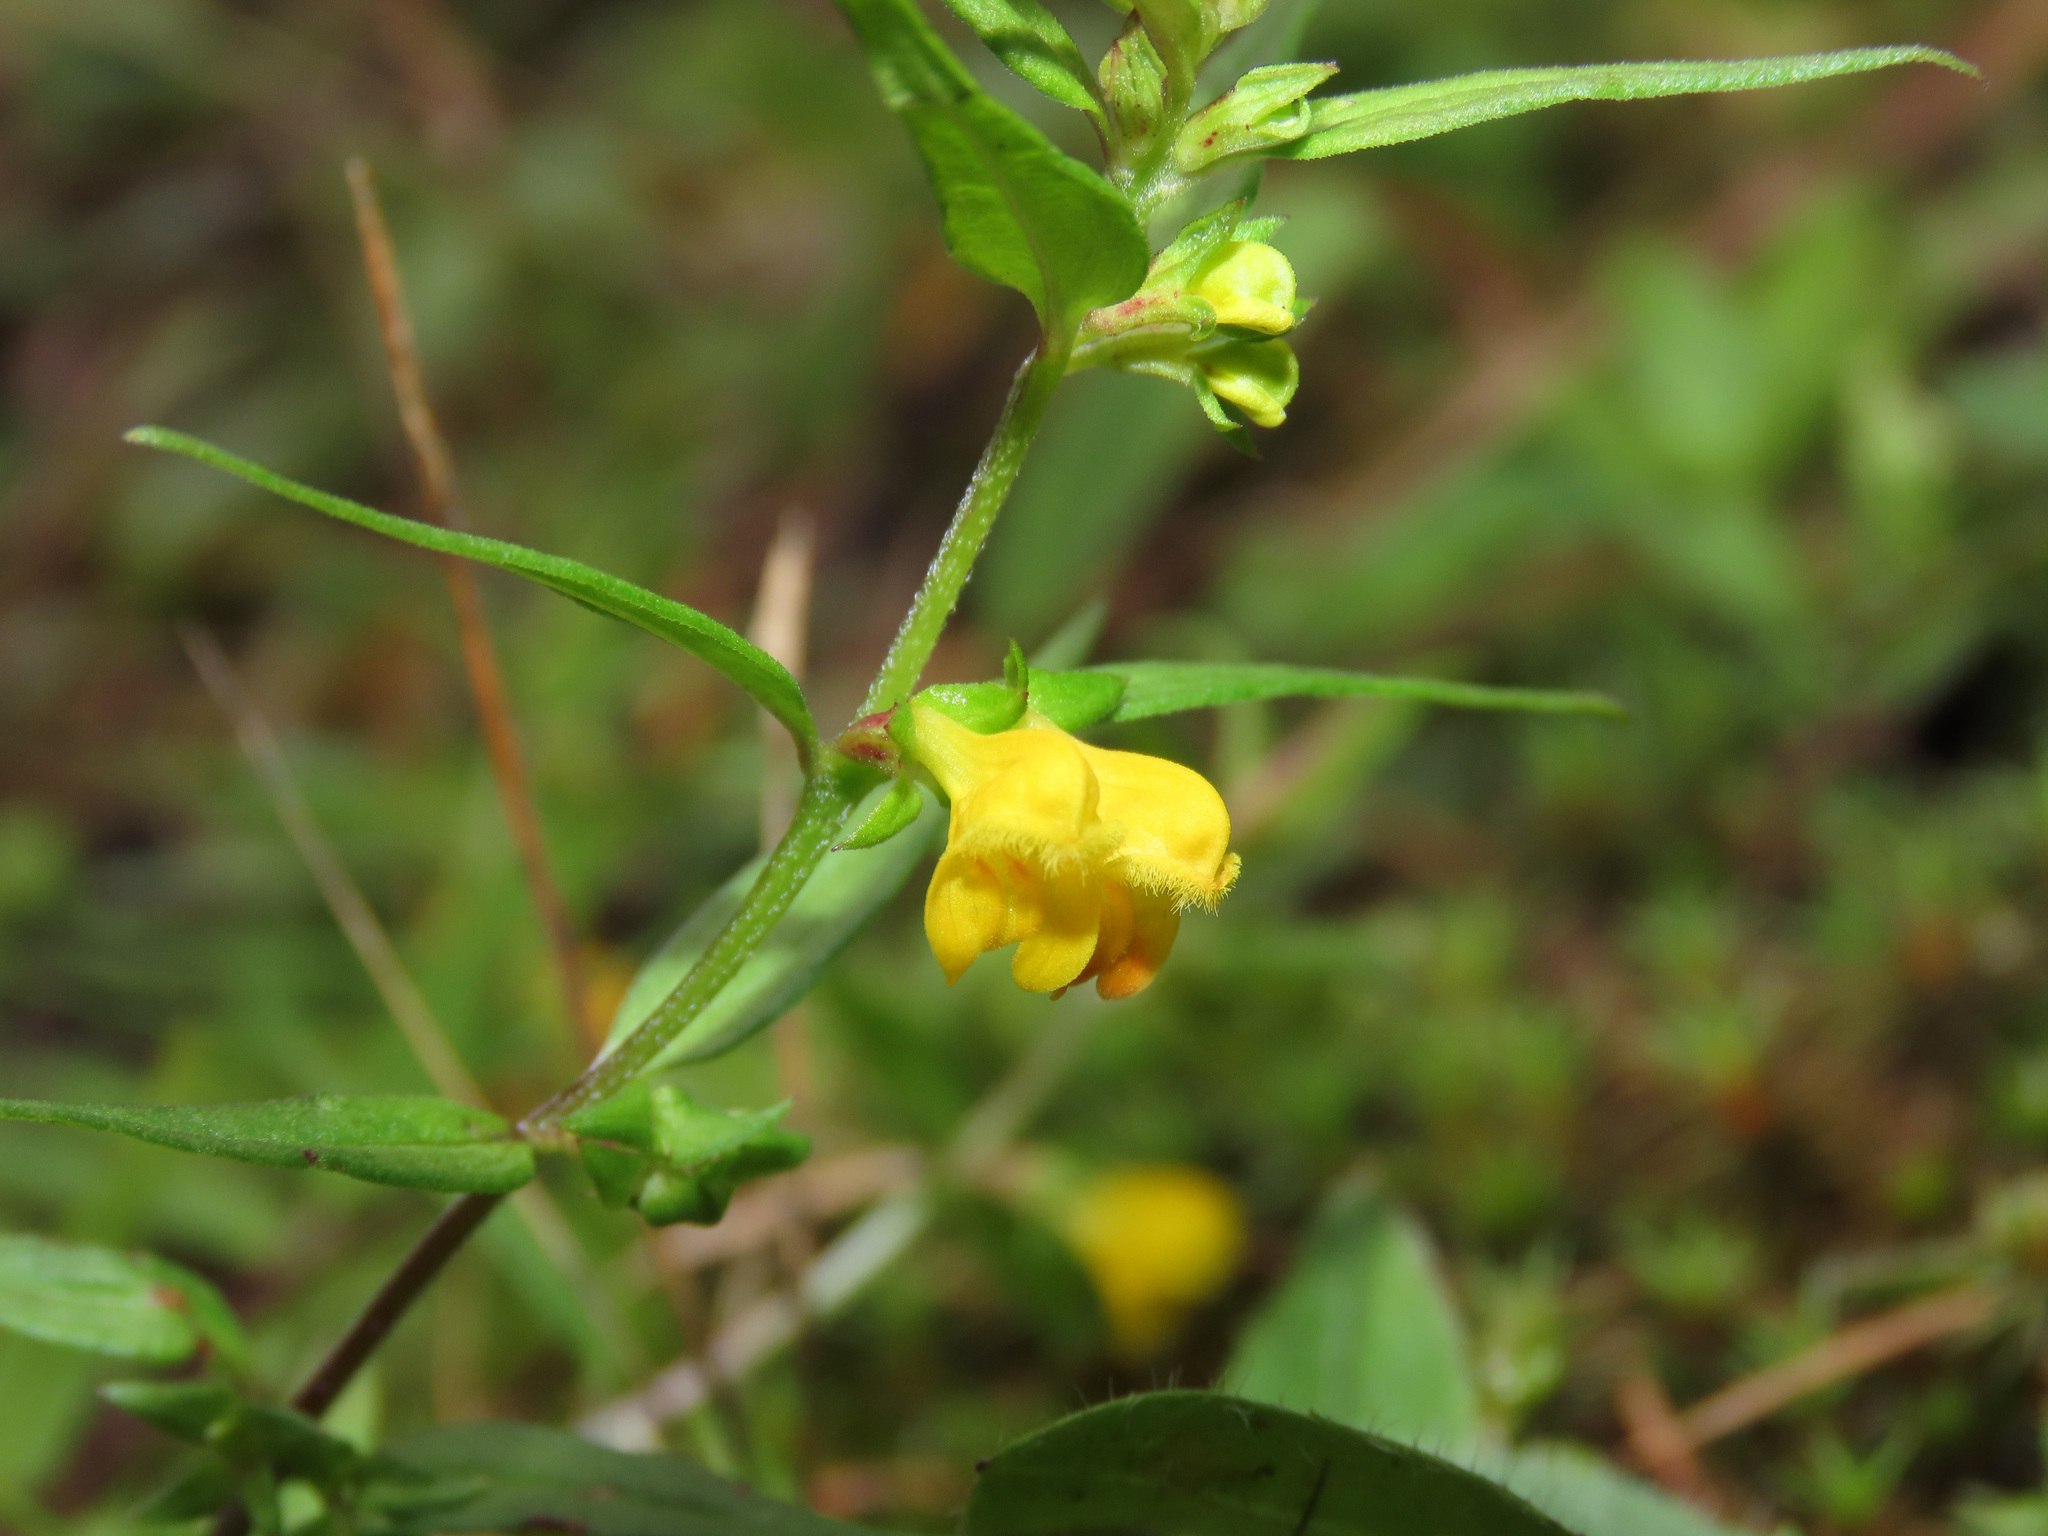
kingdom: Plantae
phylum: Tracheophyta
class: Magnoliopsida
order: Lamiales
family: Orobanchaceae
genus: Melampyrum
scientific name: Melampyrum sylvaticum
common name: Small cow-wheat
